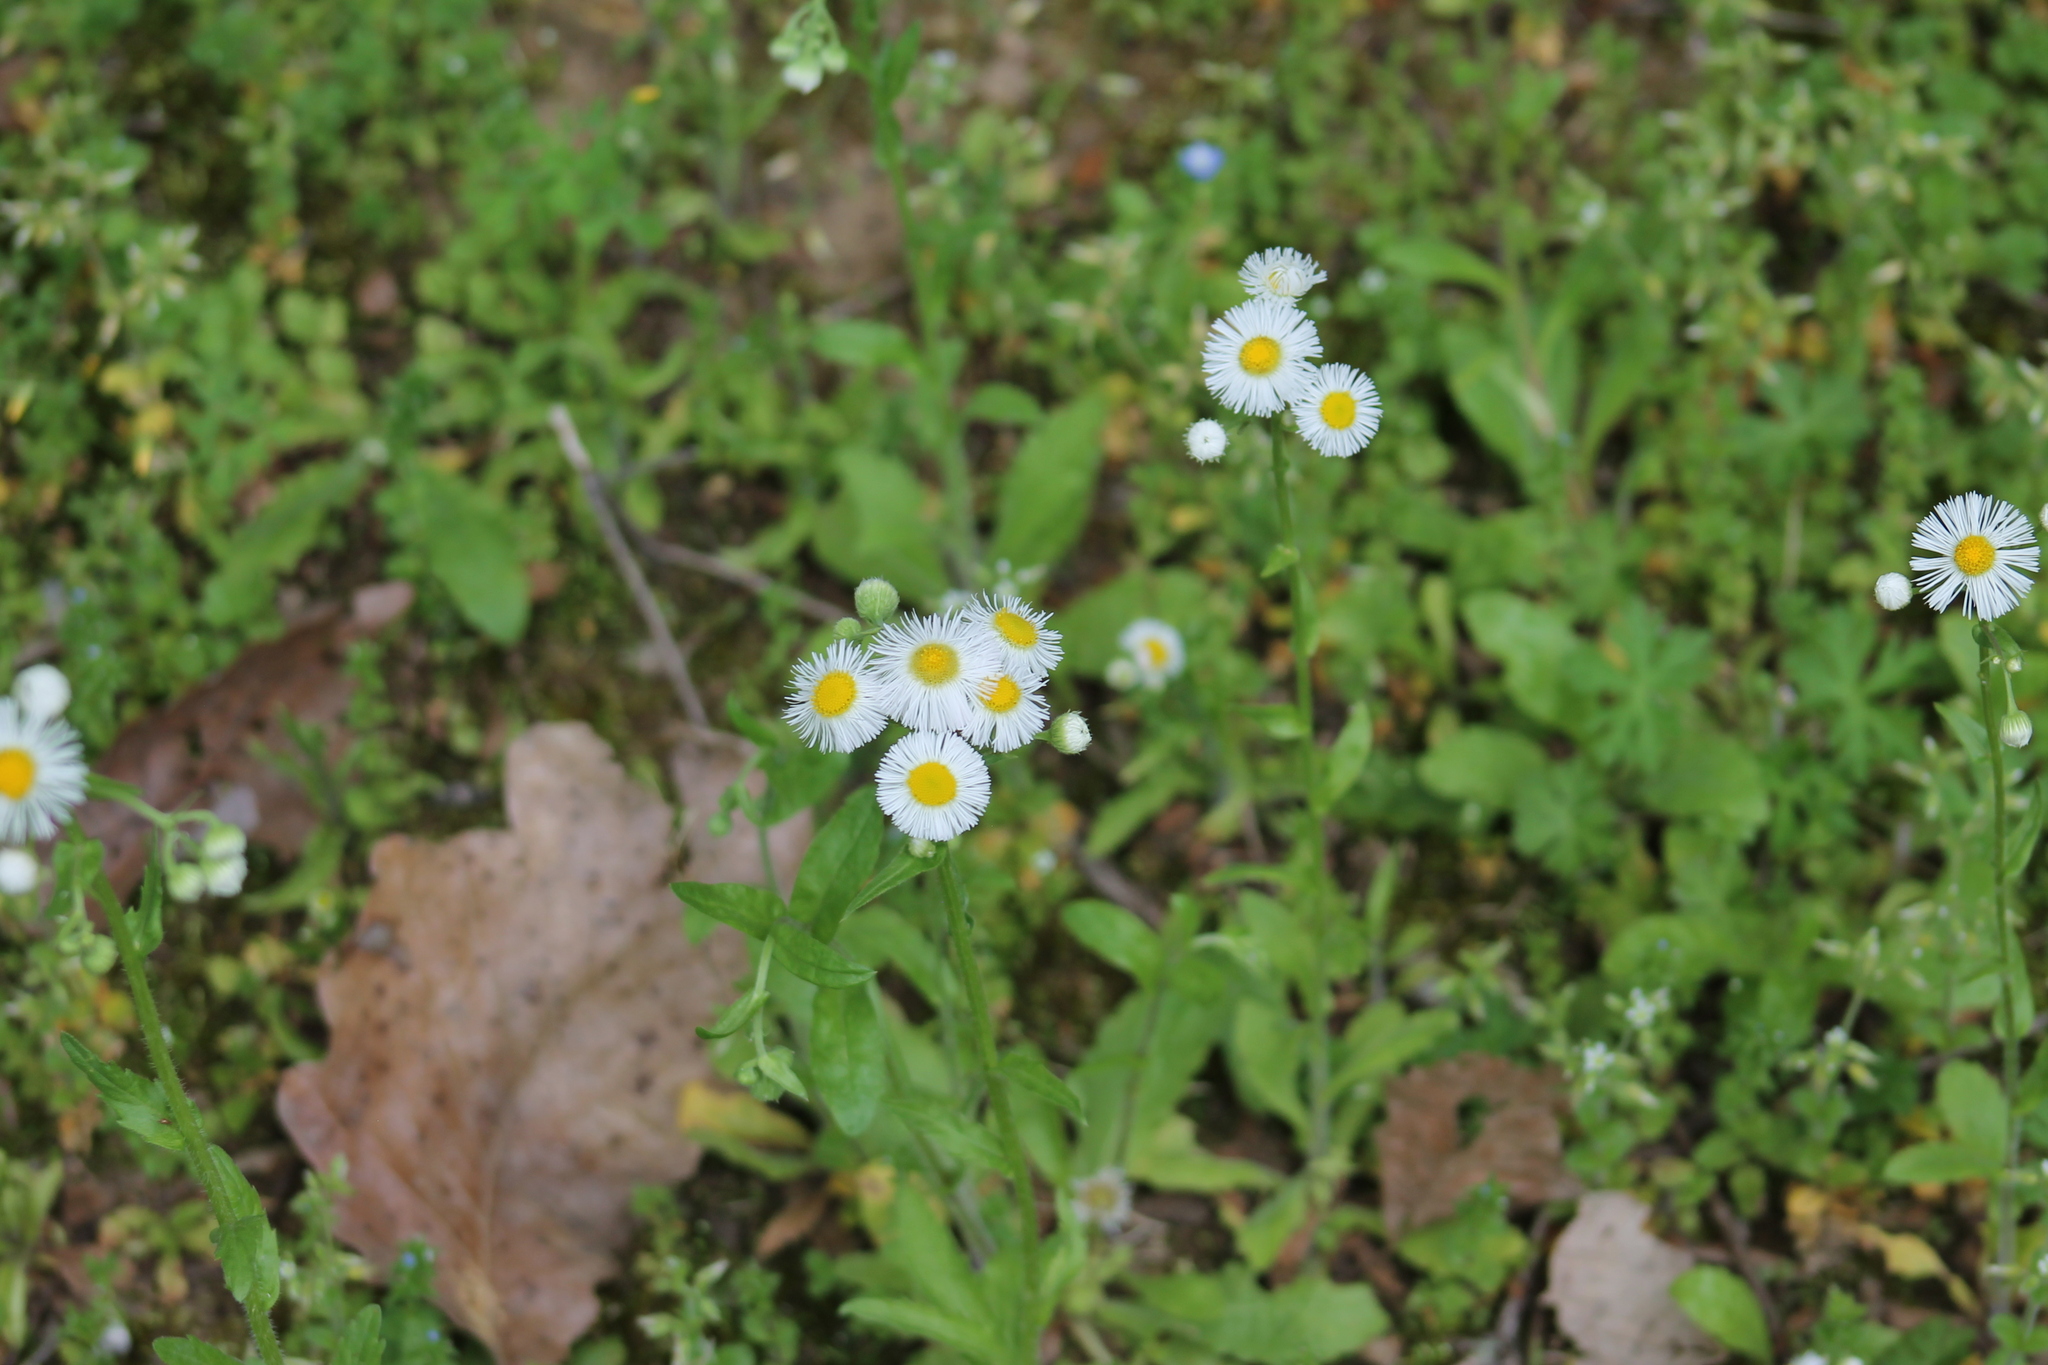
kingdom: Plantae
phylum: Tracheophyta
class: Magnoliopsida
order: Asterales
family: Asteraceae
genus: Erigeron
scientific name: Erigeron philadelphicus
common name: Robin's-plantain
